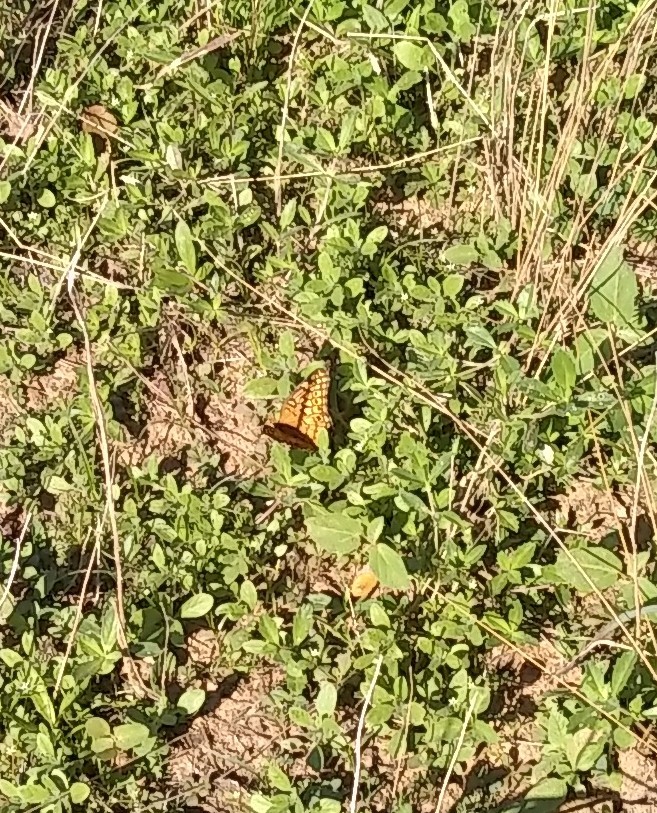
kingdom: Animalia
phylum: Arthropoda
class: Insecta
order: Lepidoptera
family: Nymphalidae
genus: Euptoieta
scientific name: Euptoieta claudia
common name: Variegated fritillary
